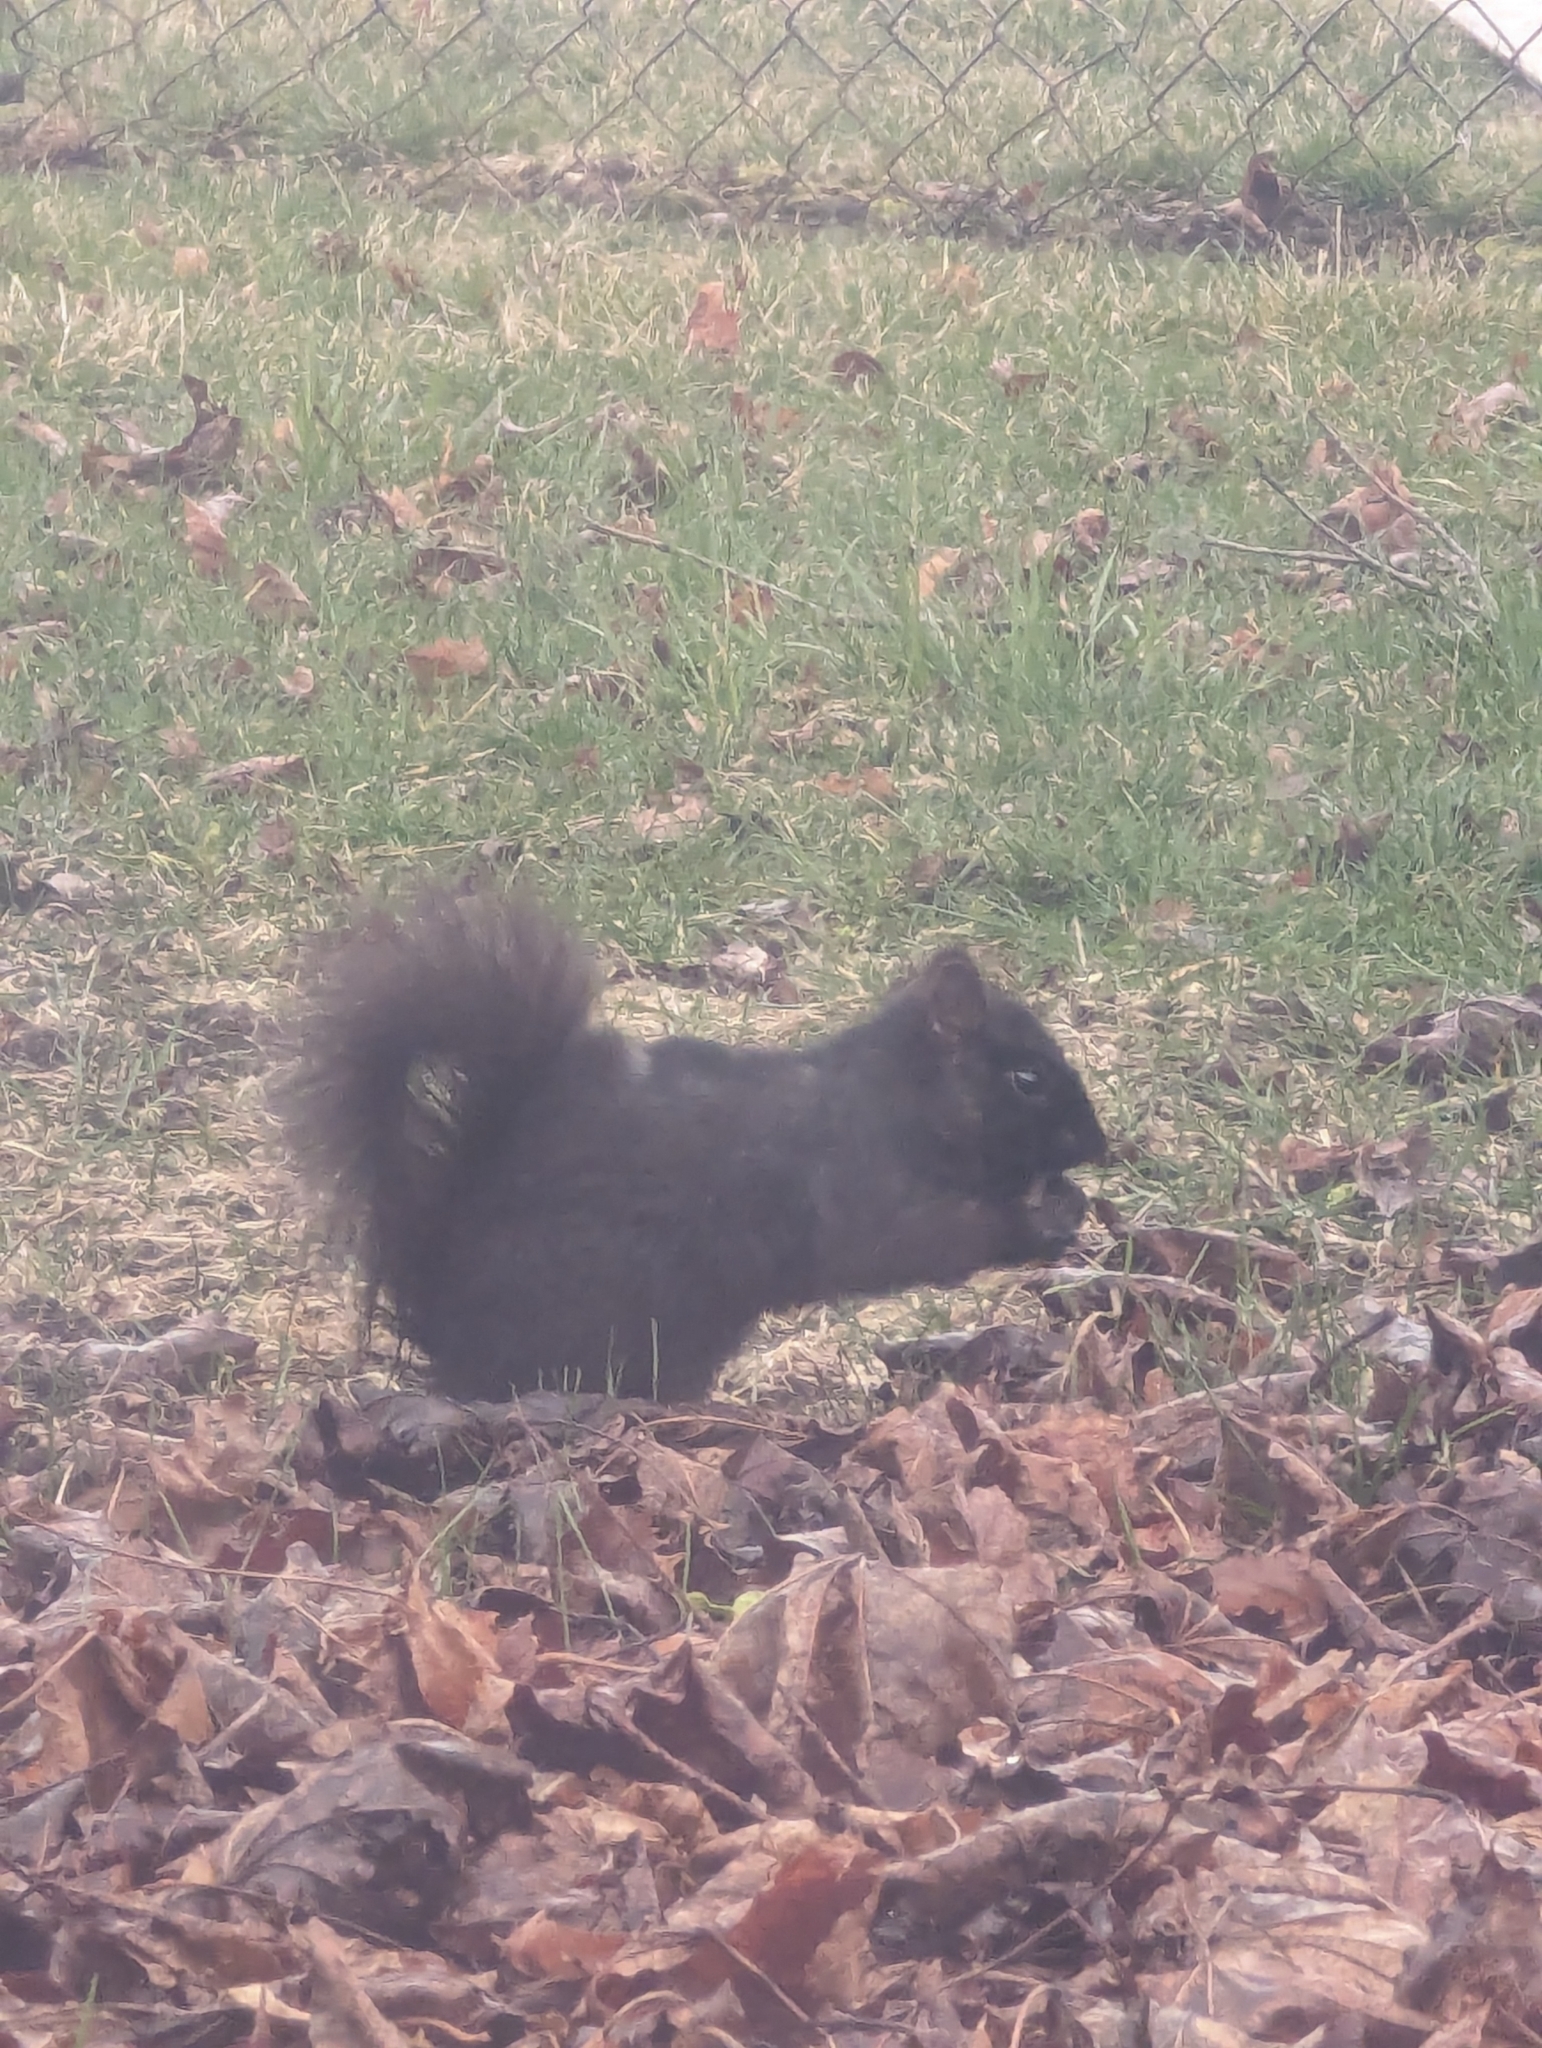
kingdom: Animalia
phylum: Chordata
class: Mammalia
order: Rodentia
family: Sciuridae
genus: Sciurus
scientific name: Sciurus carolinensis
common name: Eastern gray squirrel
